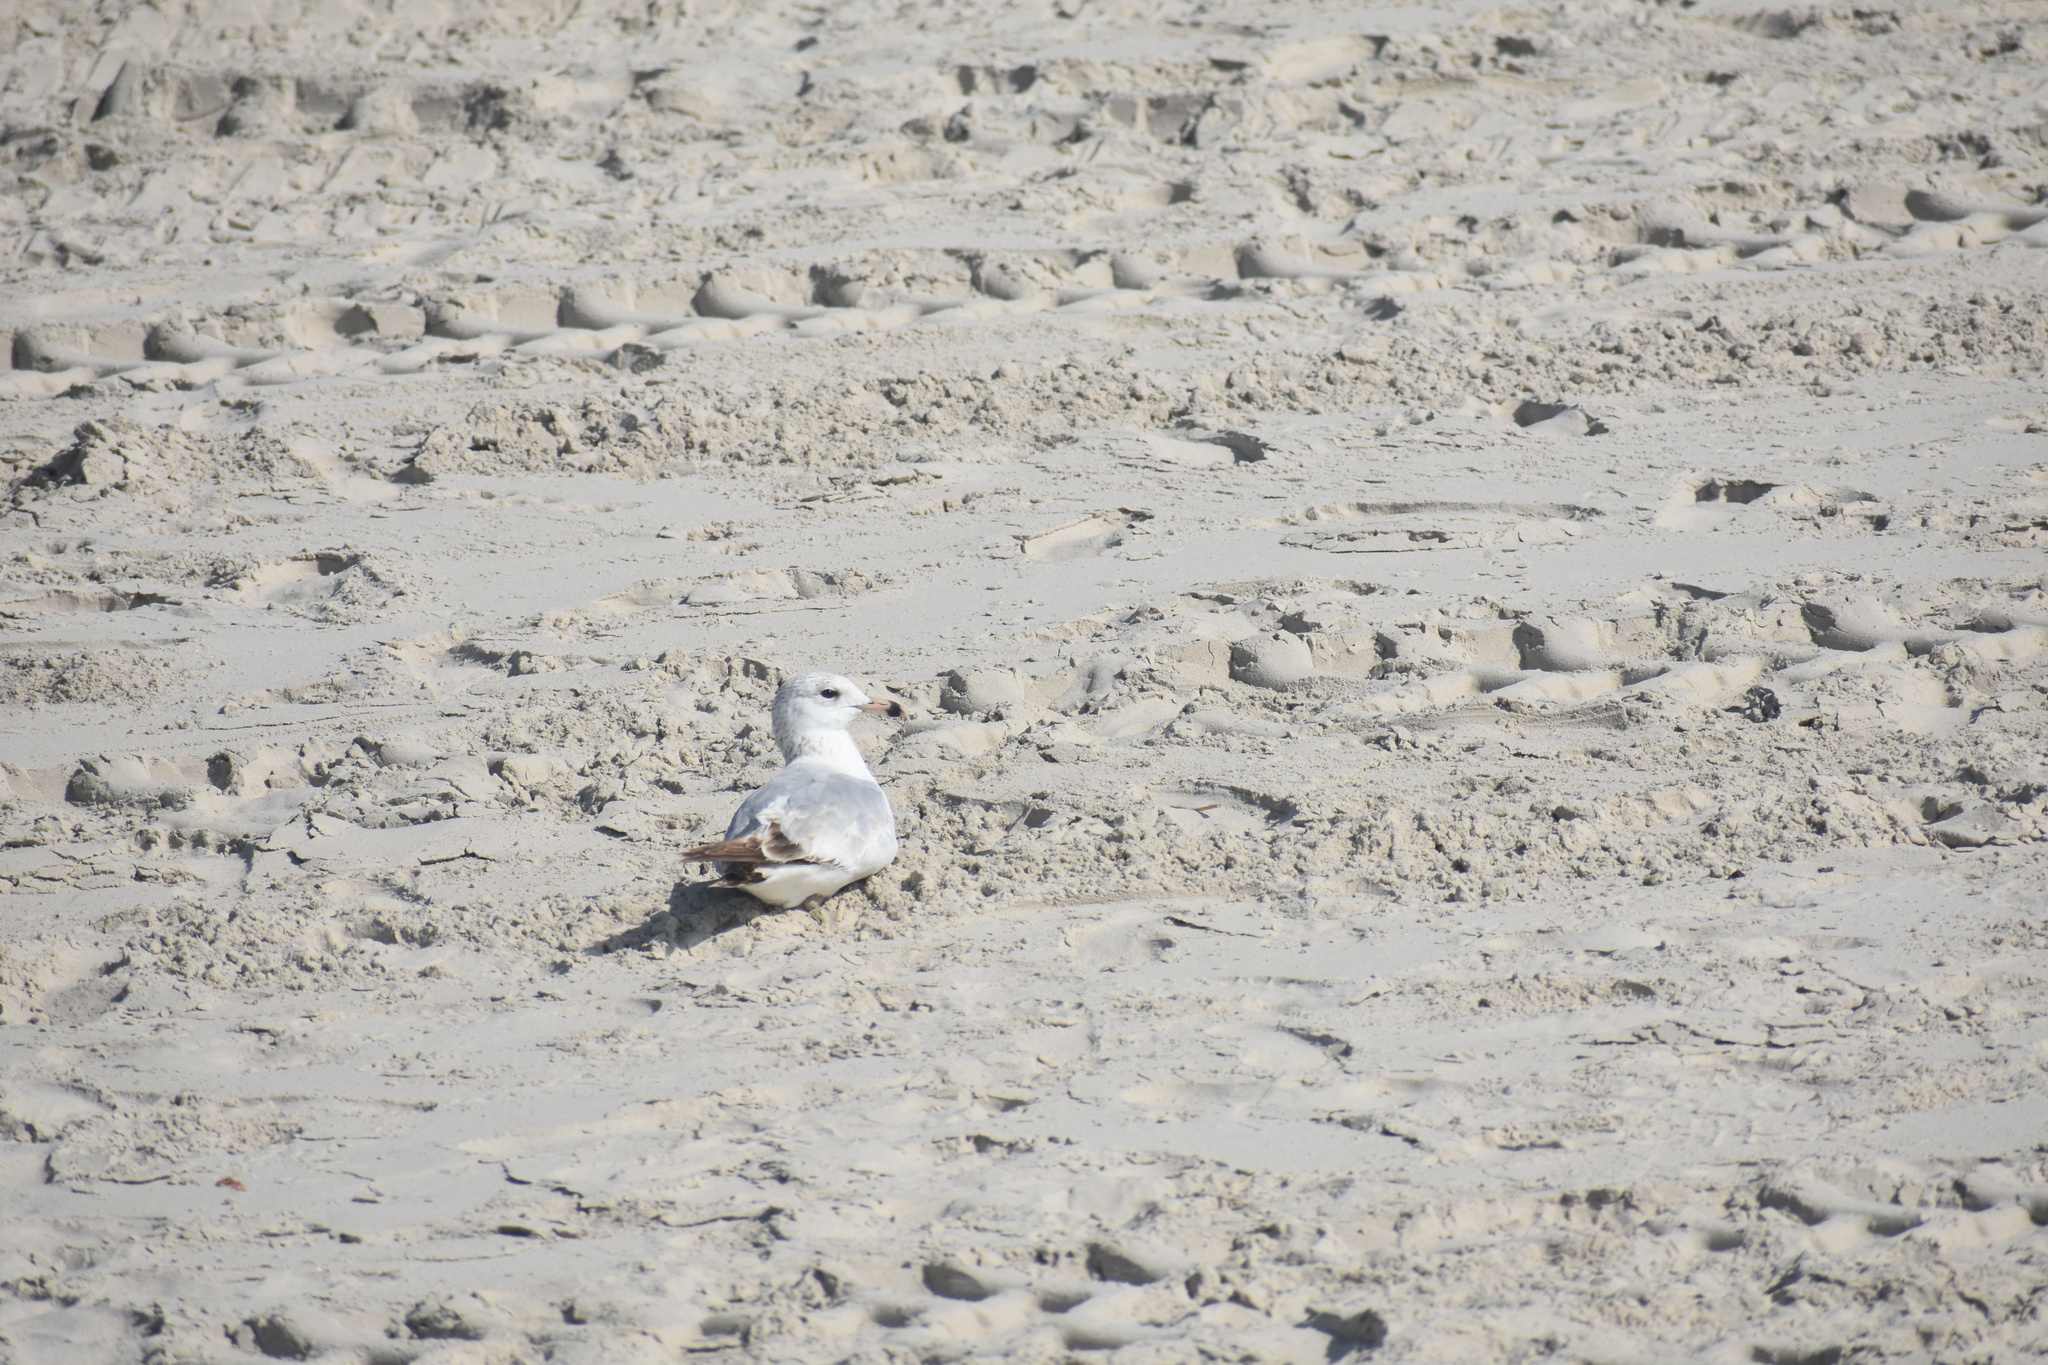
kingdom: Animalia
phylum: Chordata
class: Aves
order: Charadriiformes
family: Laridae
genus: Larus
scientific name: Larus delawarensis
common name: Ring-billed gull
